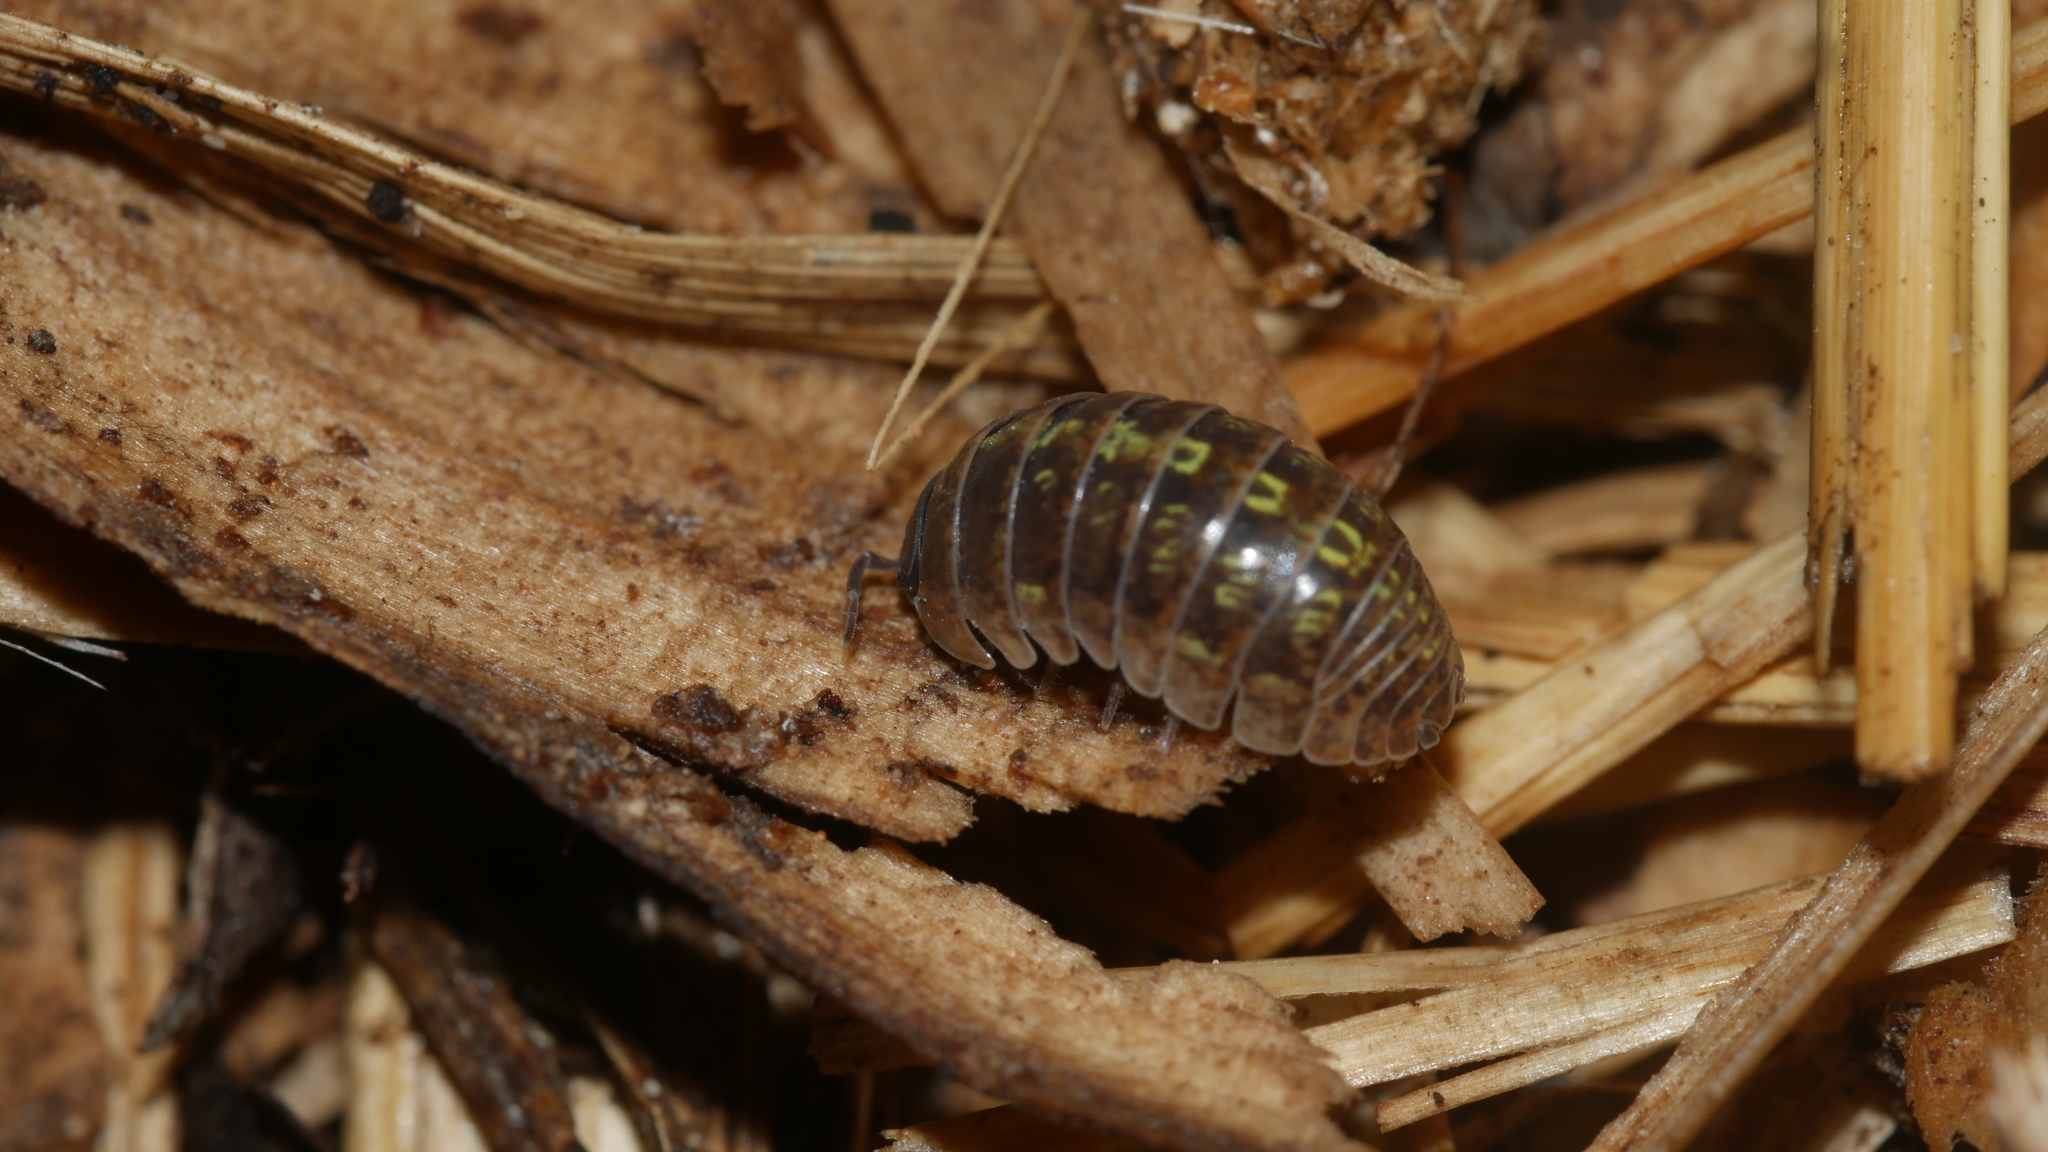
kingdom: Animalia
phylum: Arthropoda
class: Malacostraca
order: Isopoda
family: Armadillidiidae
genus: Armadillidium
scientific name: Armadillidium vulgare
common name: Common pill woodlouse
